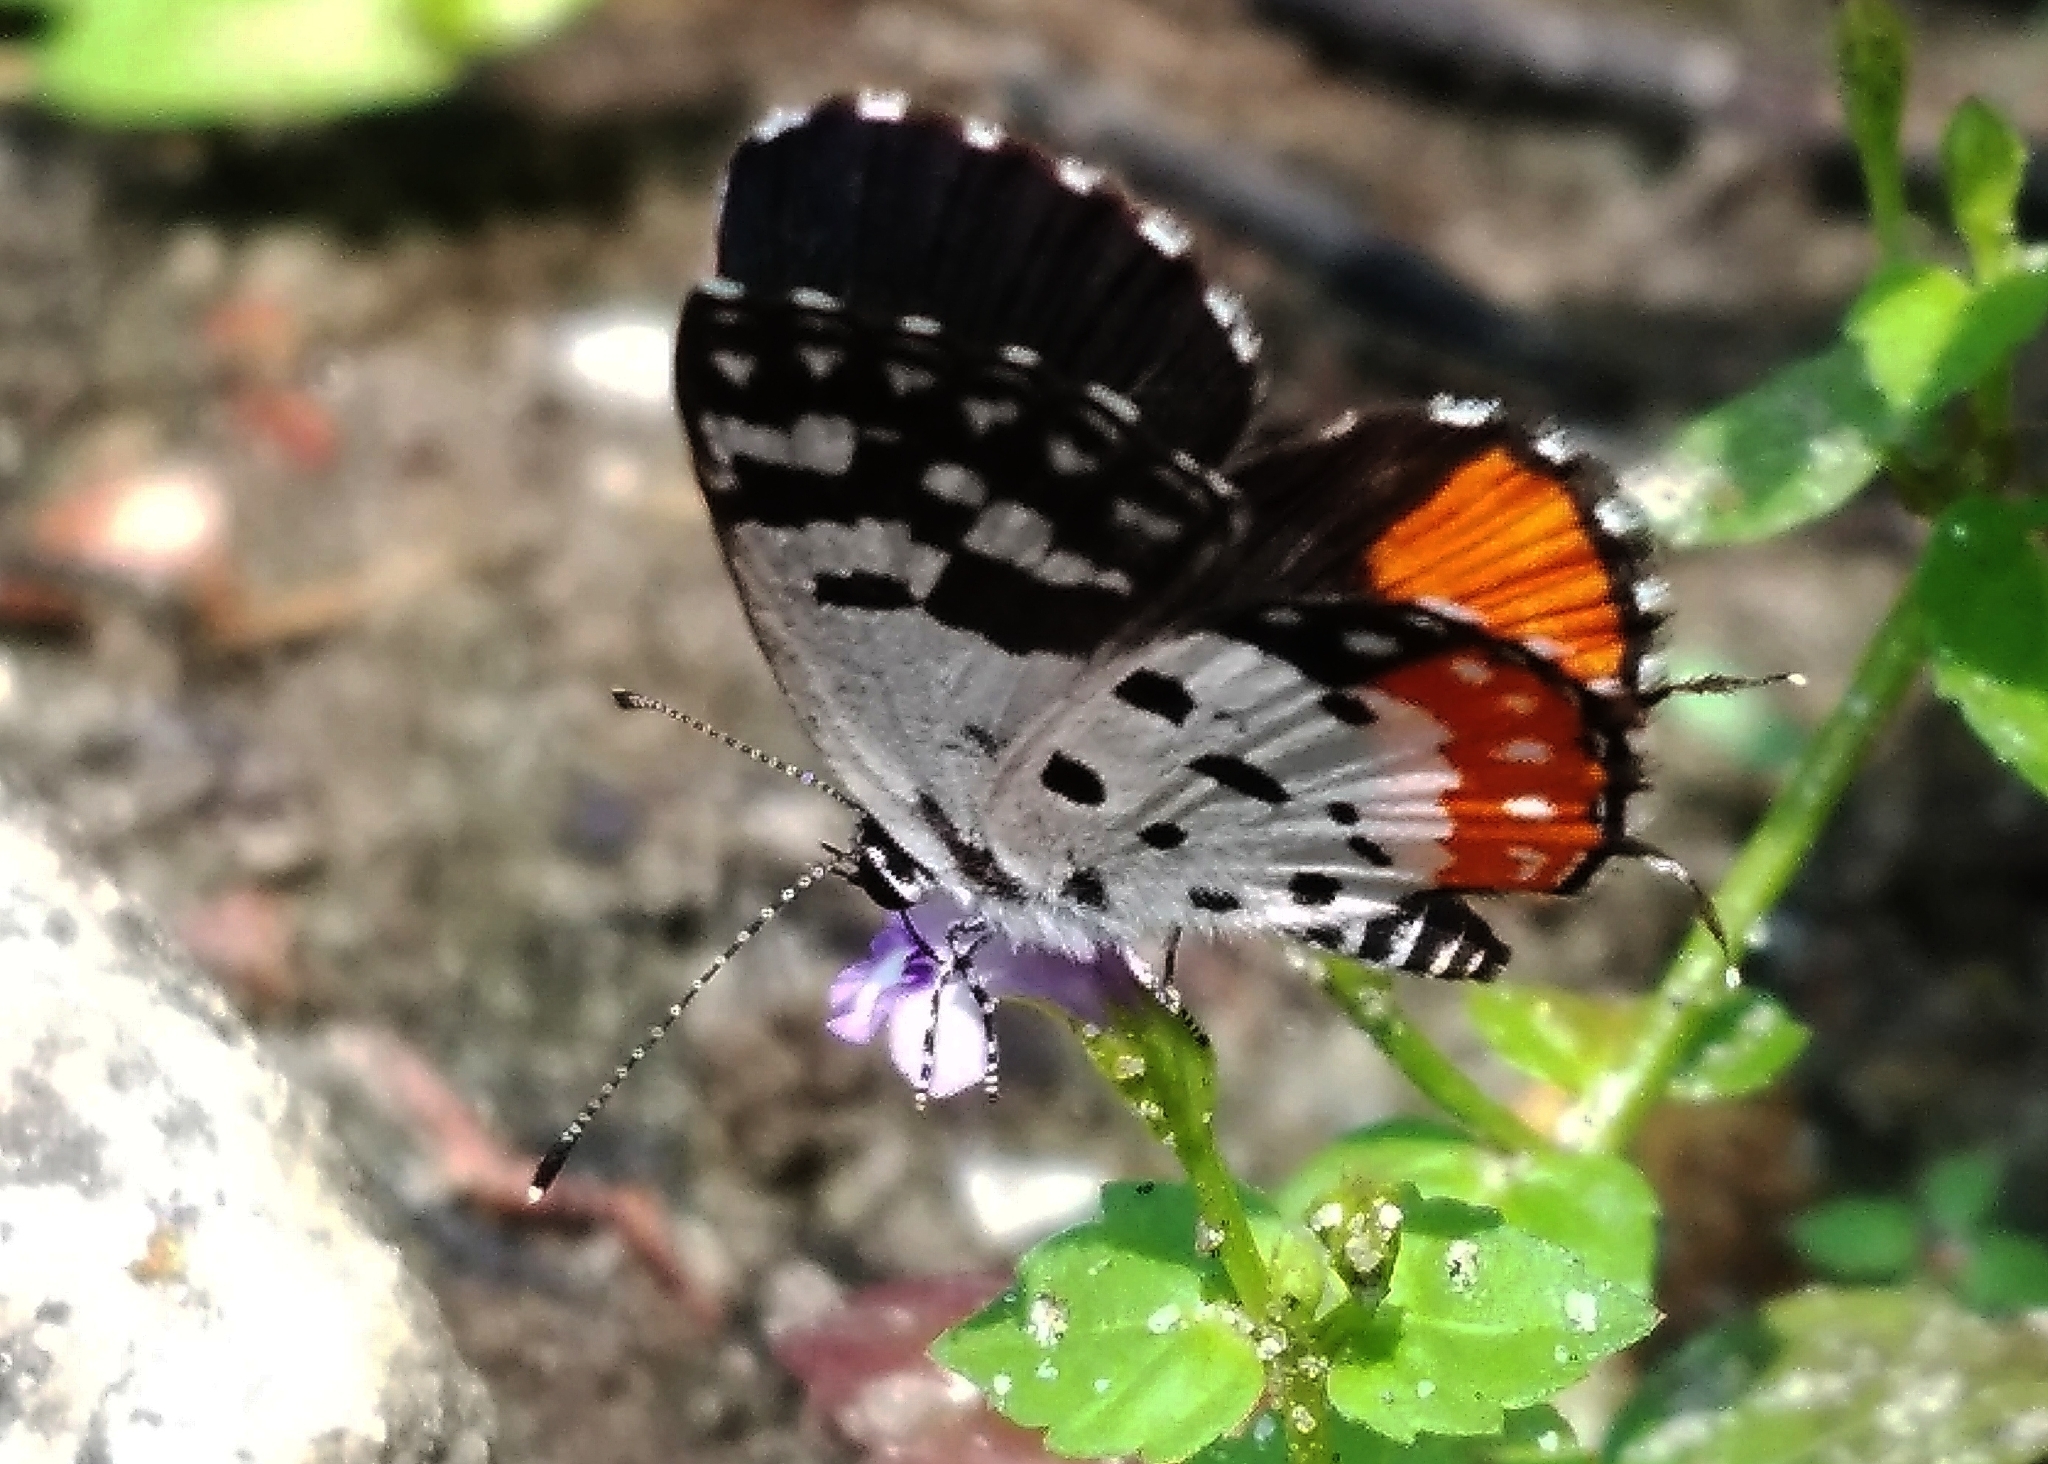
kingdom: Animalia
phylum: Arthropoda
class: Insecta
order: Lepidoptera
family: Lycaenidae
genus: Talicada
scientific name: Talicada nyseus
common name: Red pierrot
